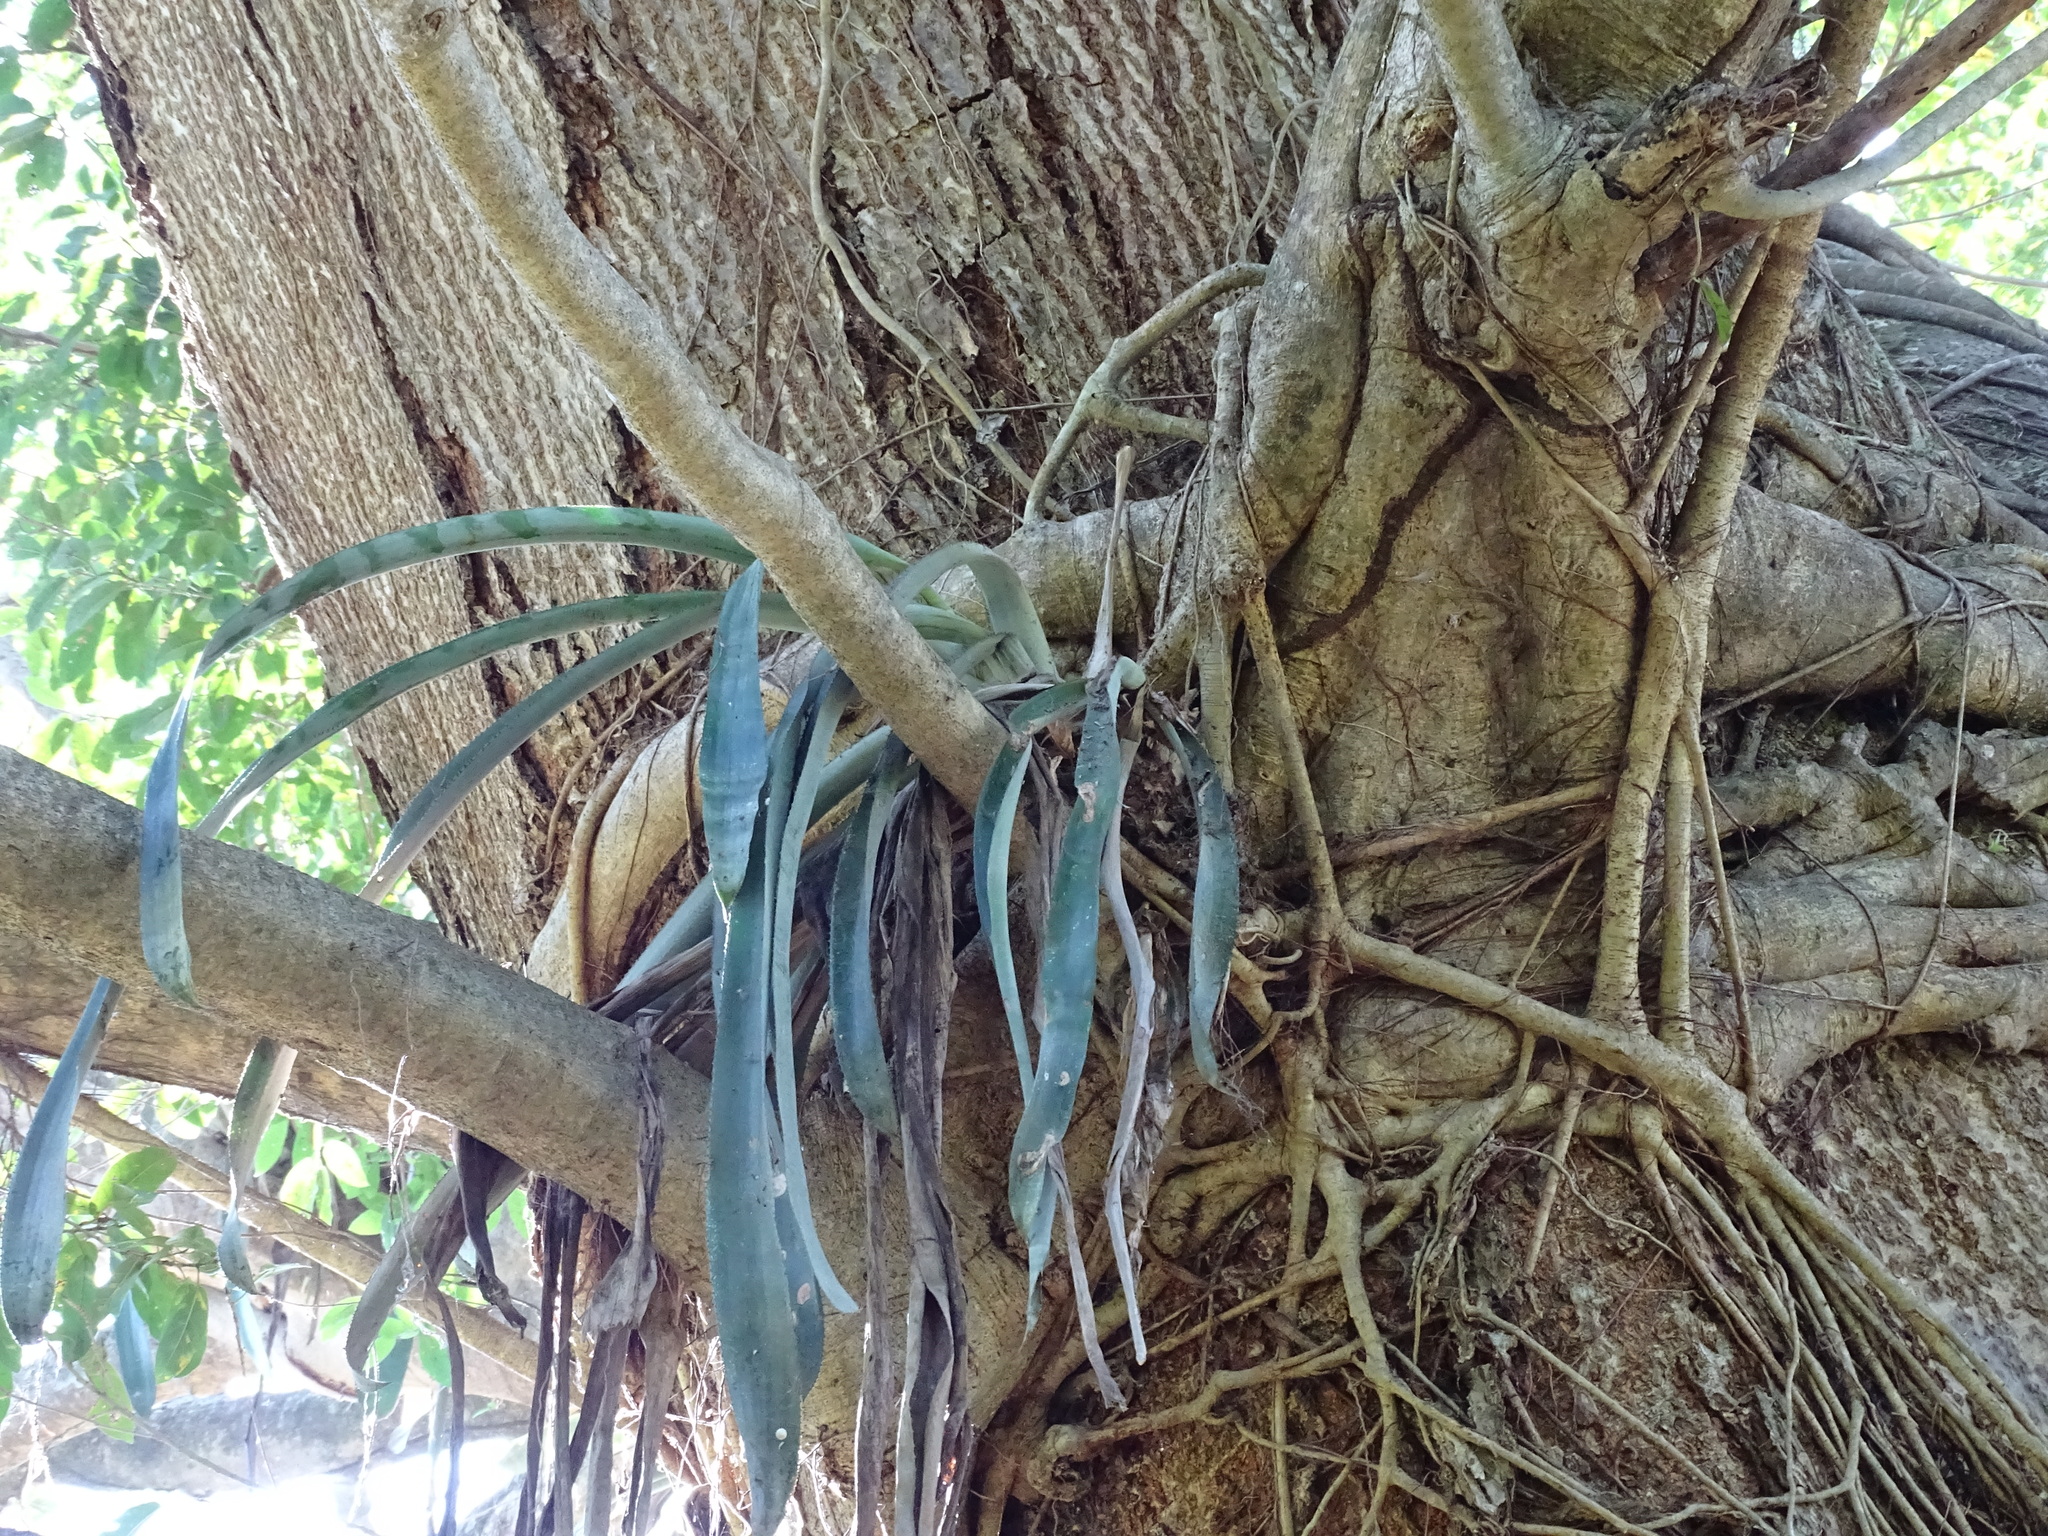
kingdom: Plantae
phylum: Tracheophyta
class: Liliopsida
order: Poales
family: Bromeliaceae
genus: Aechmea
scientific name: Aechmea matudae
